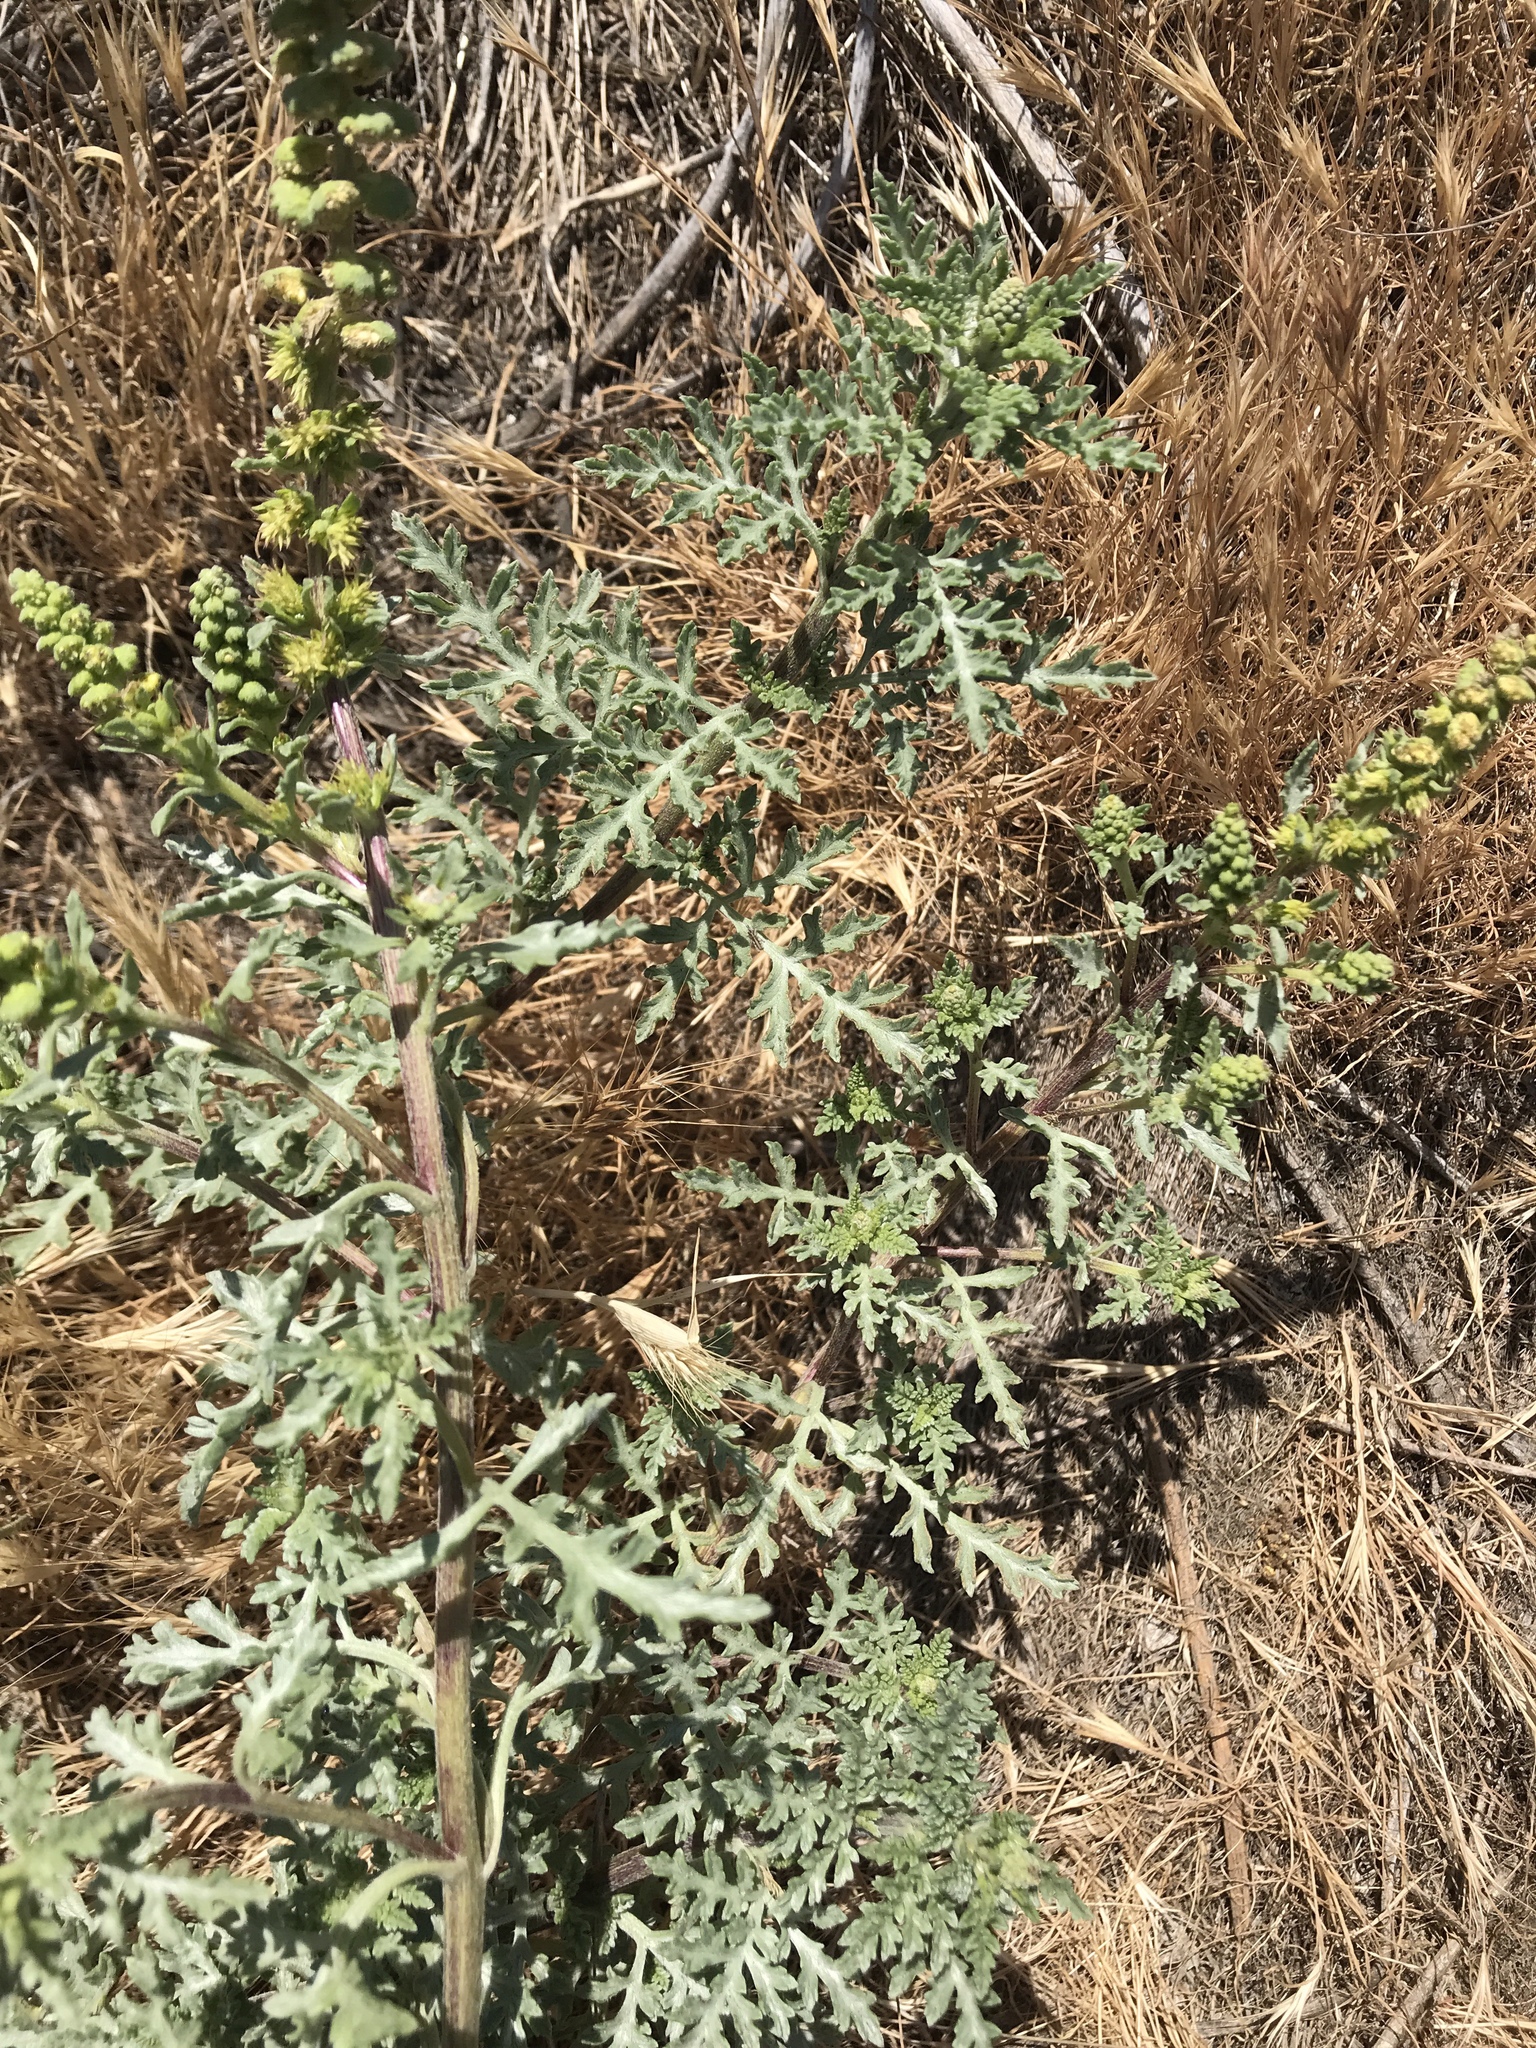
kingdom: Plantae
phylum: Tracheophyta
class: Magnoliopsida
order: Asterales
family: Asteraceae
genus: Ambrosia
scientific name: Ambrosia chamissonis
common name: Beachbur
